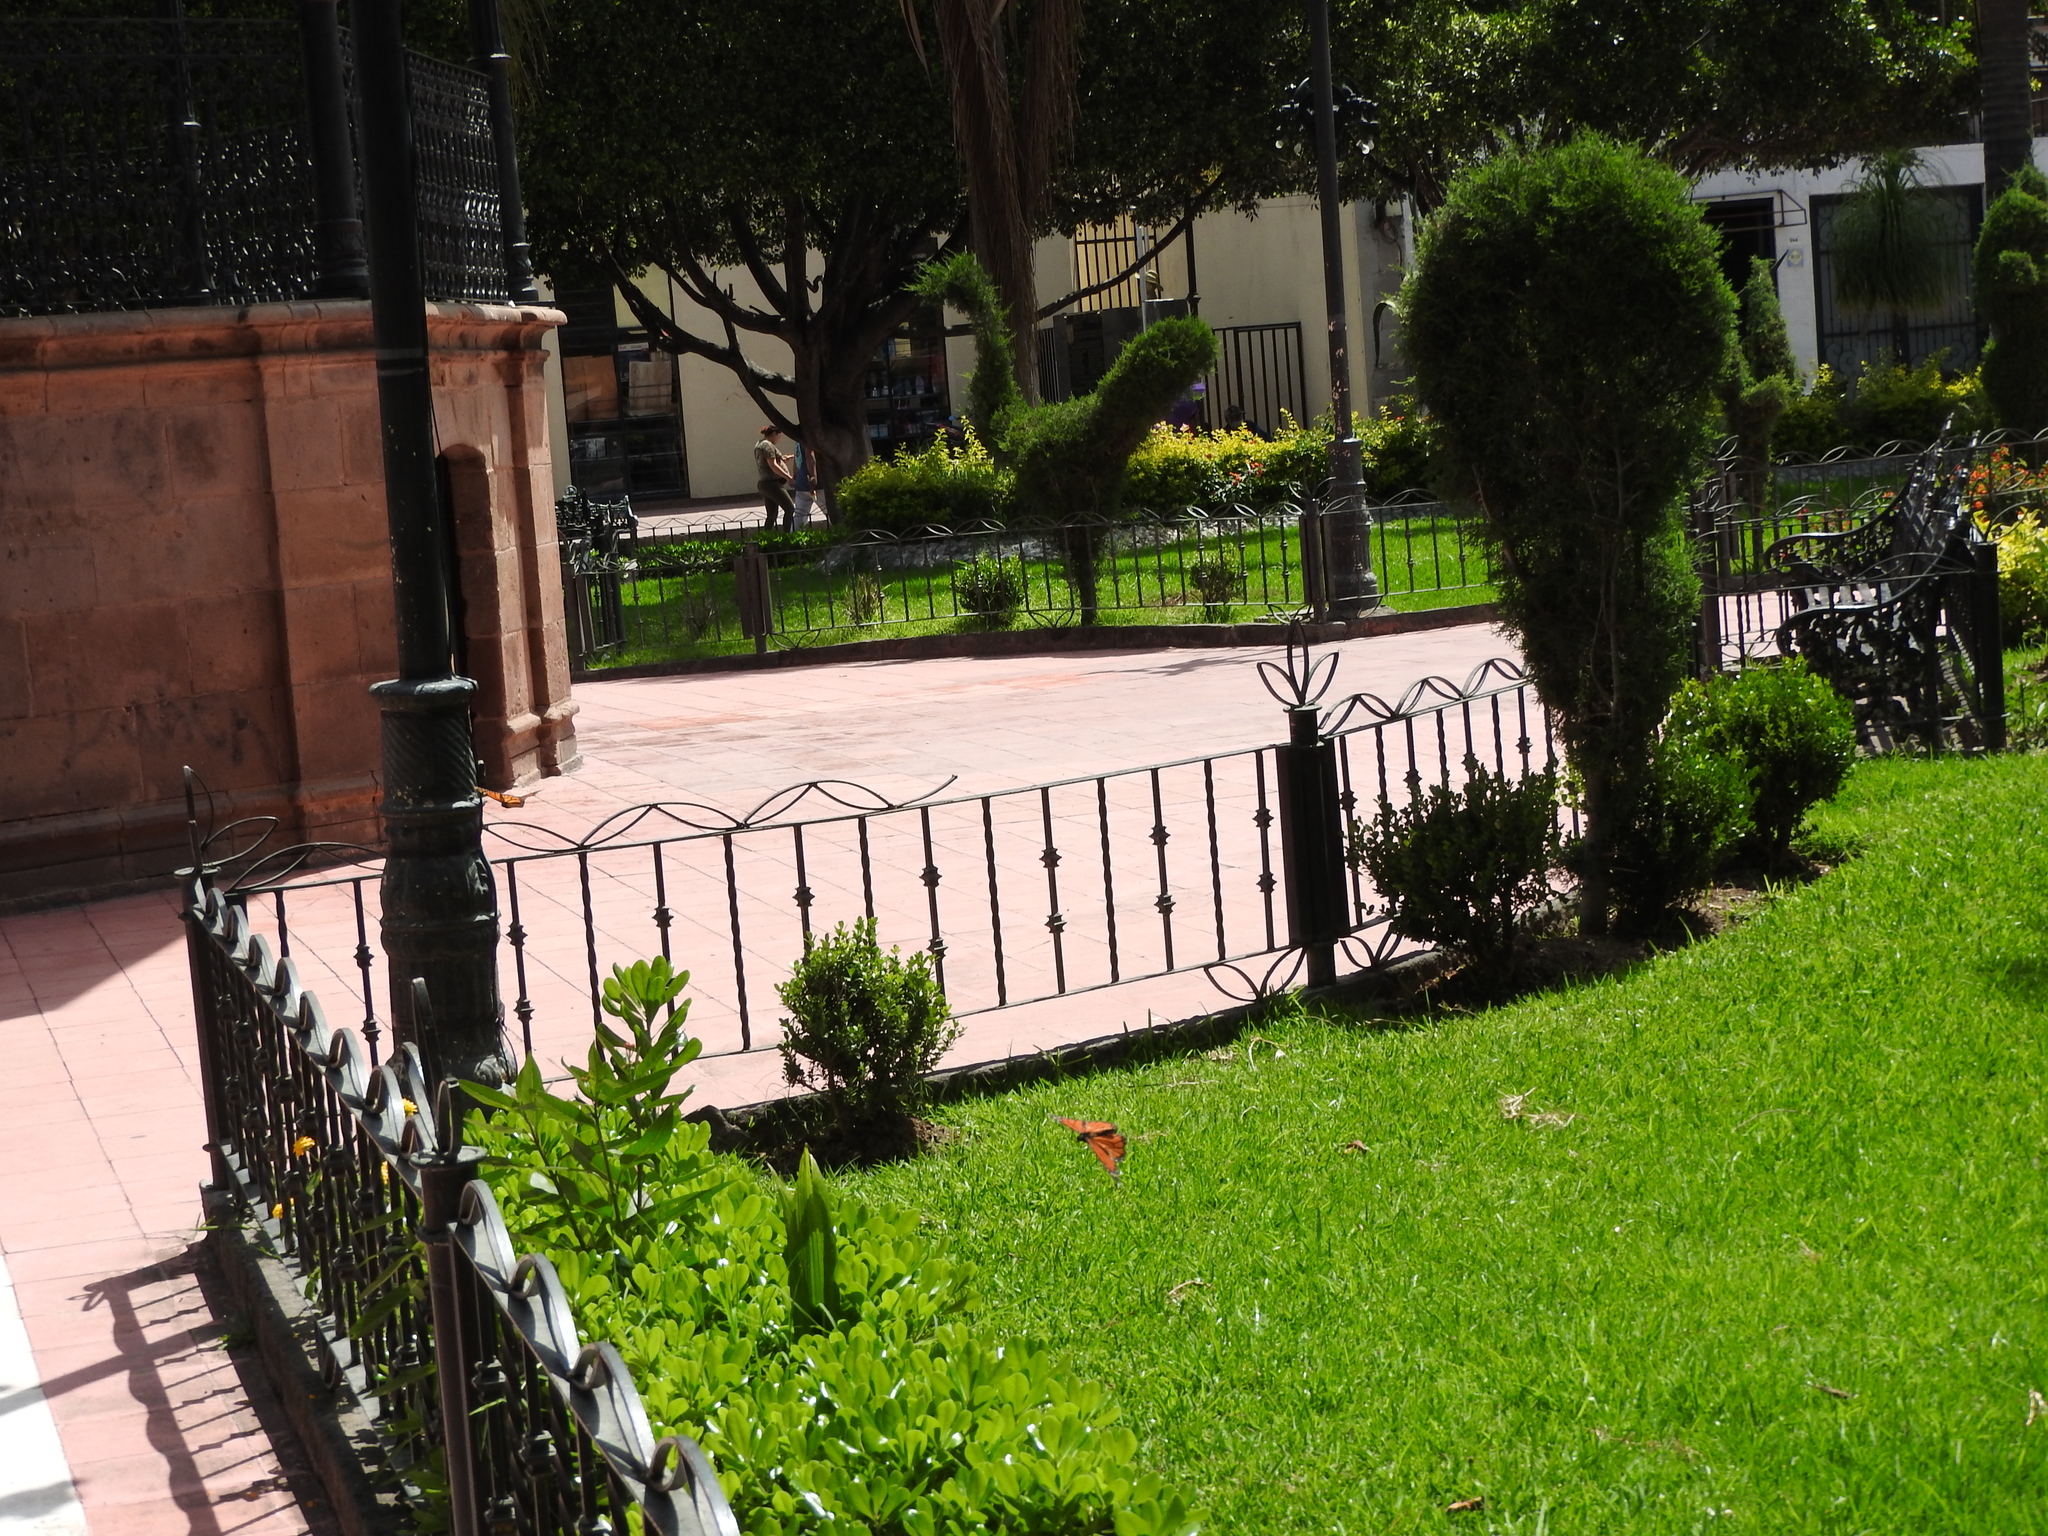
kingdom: Animalia
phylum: Arthropoda
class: Insecta
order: Lepidoptera
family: Nymphalidae
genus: Danaus
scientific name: Danaus plexippus
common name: Monarch
